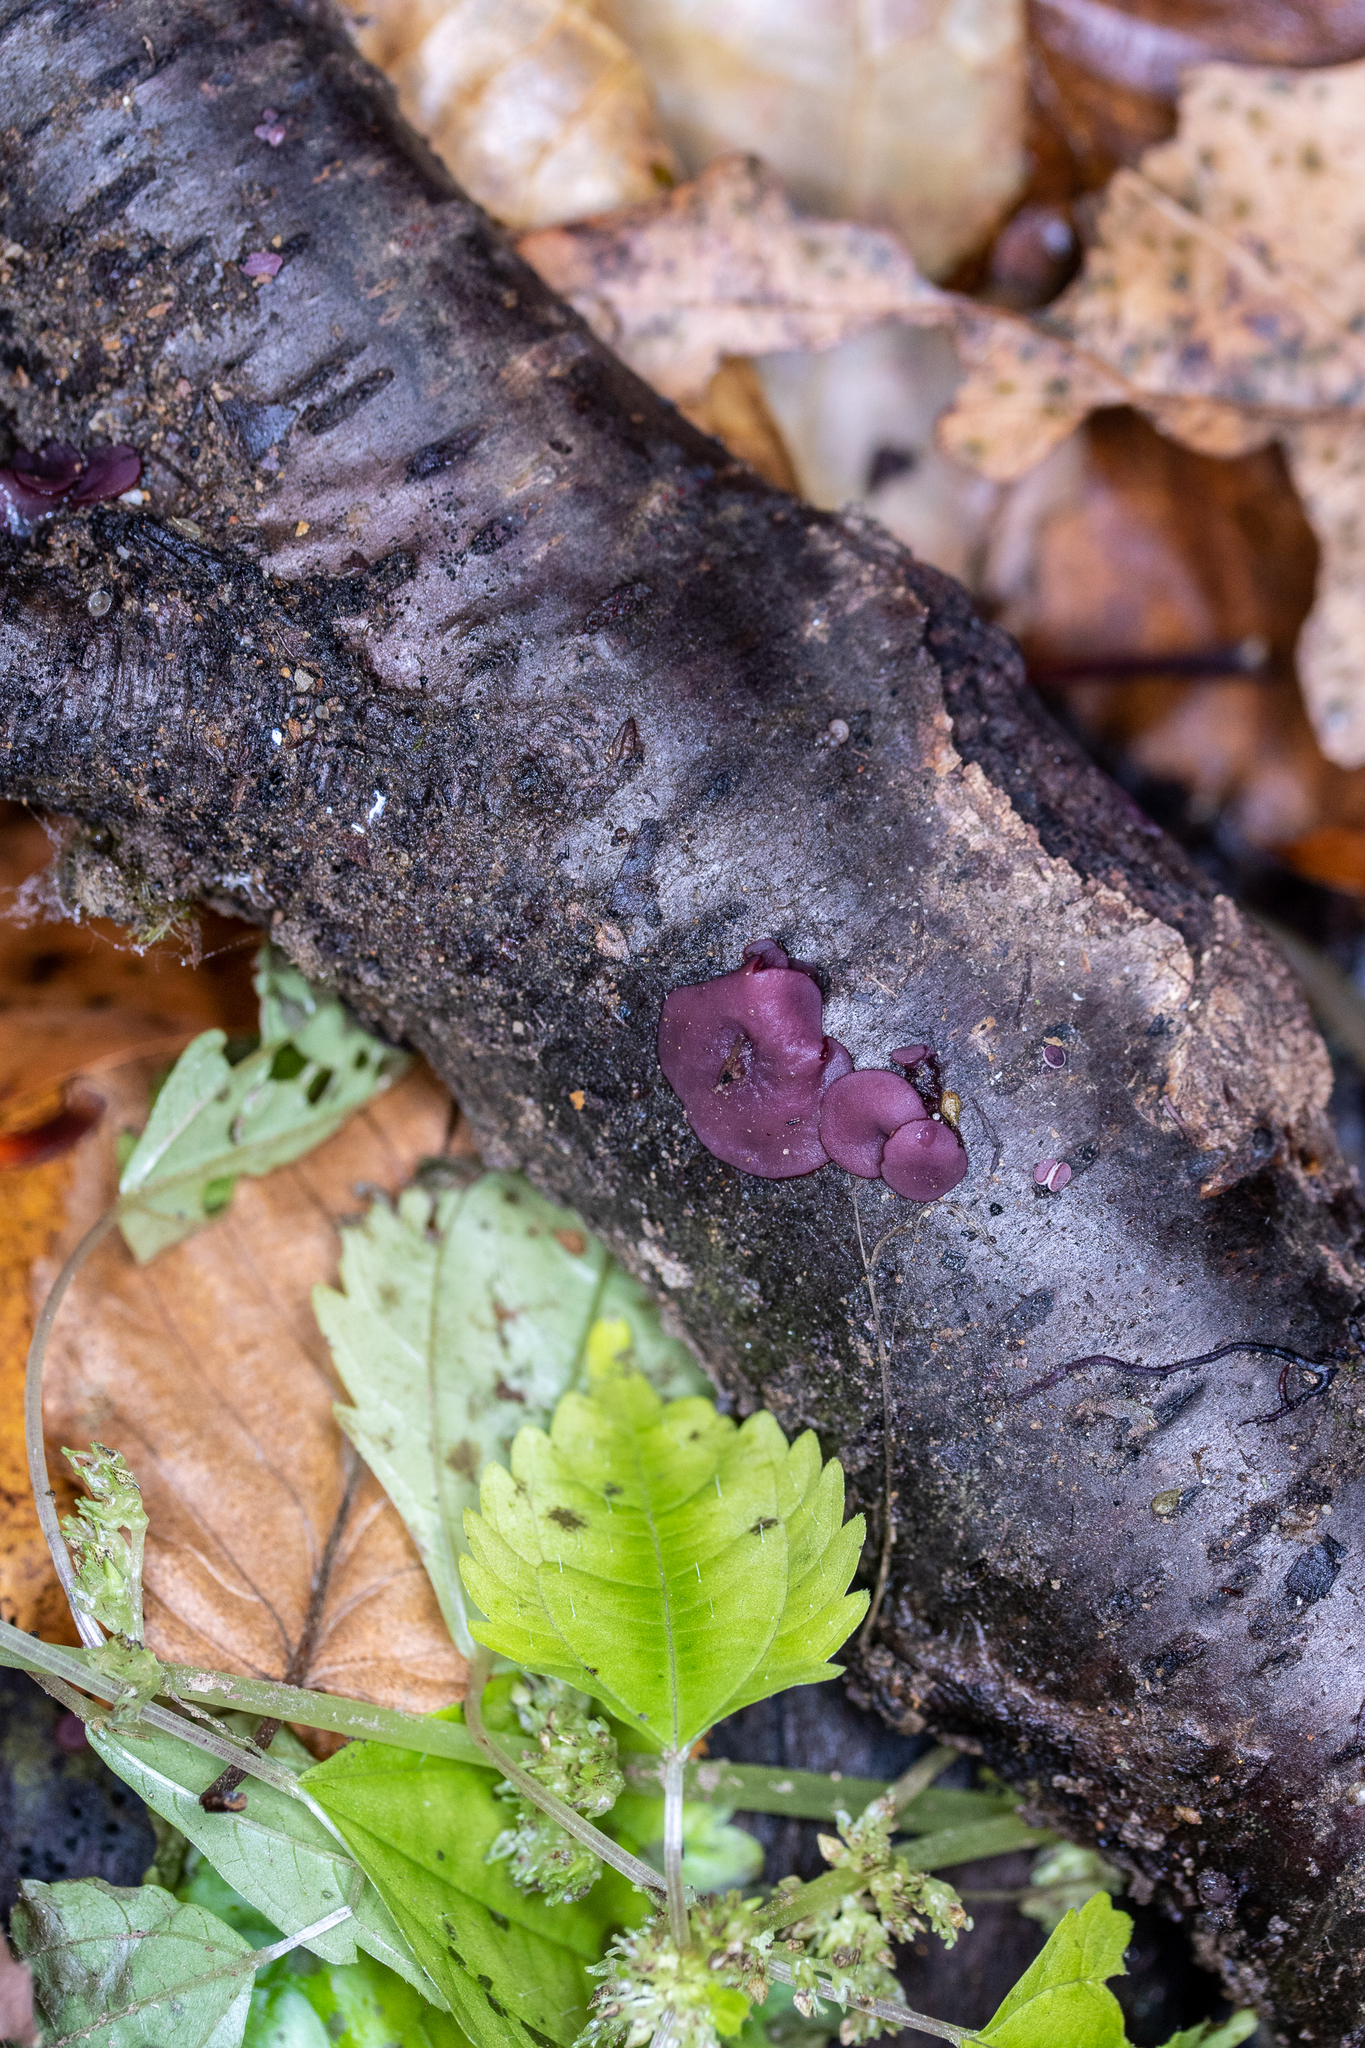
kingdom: Fungi
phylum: Ascomycota
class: Leotiomycetes
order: Helotiales
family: Gelatinodiscaceae
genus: Ascocoryne
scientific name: Ascocoryne sarcoides
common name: Purple jellydisc
